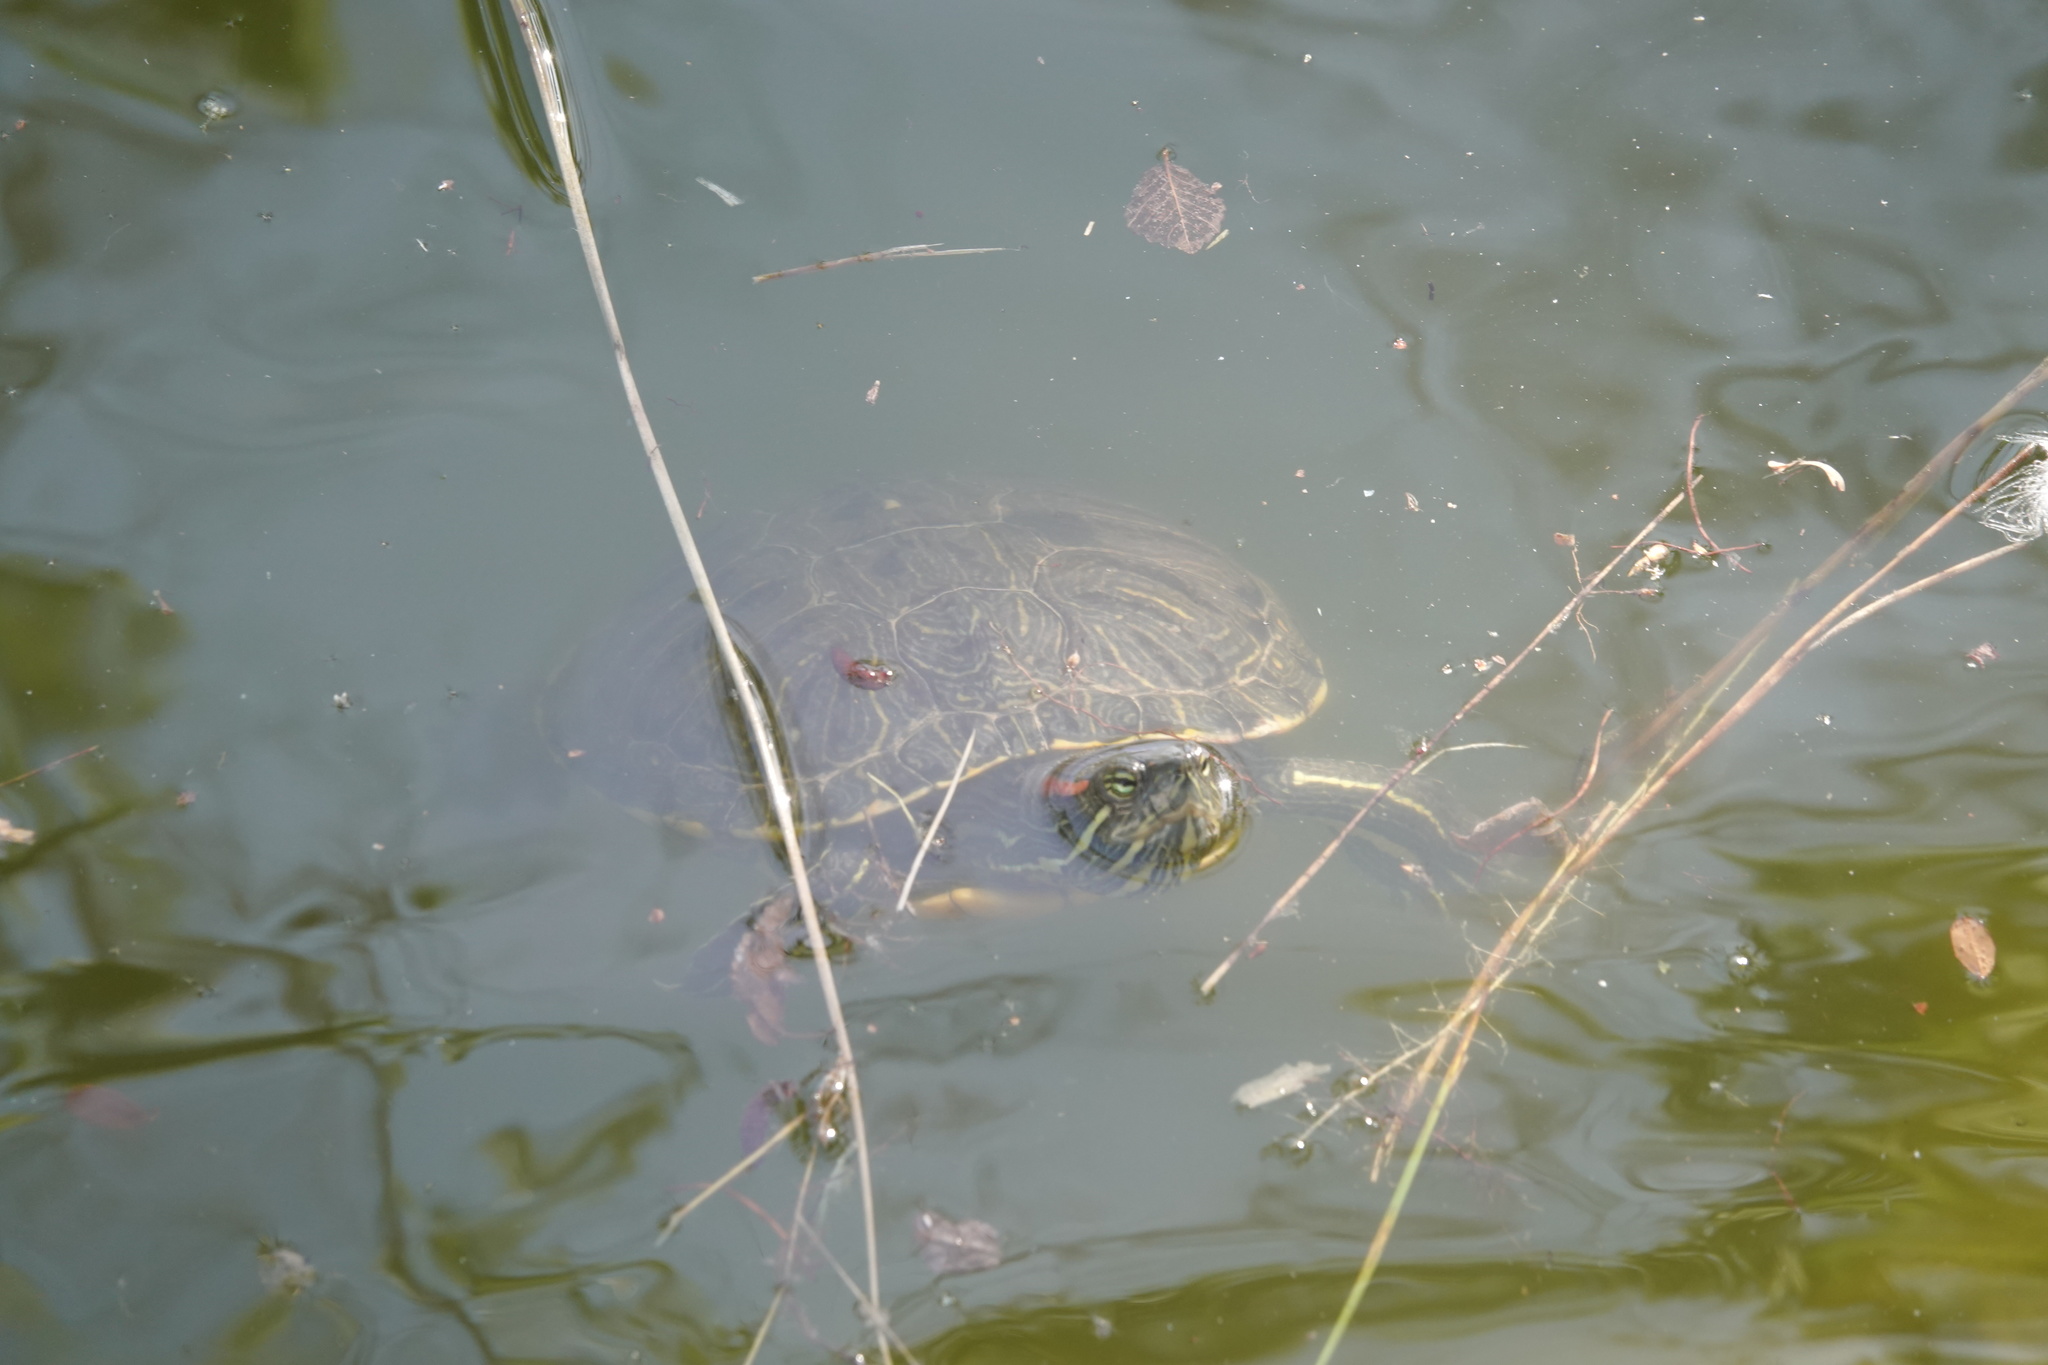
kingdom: Animalia
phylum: Chordata
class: Testudines
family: Emydidae
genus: Trachemys
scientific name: Trachemys scripta
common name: Slider
